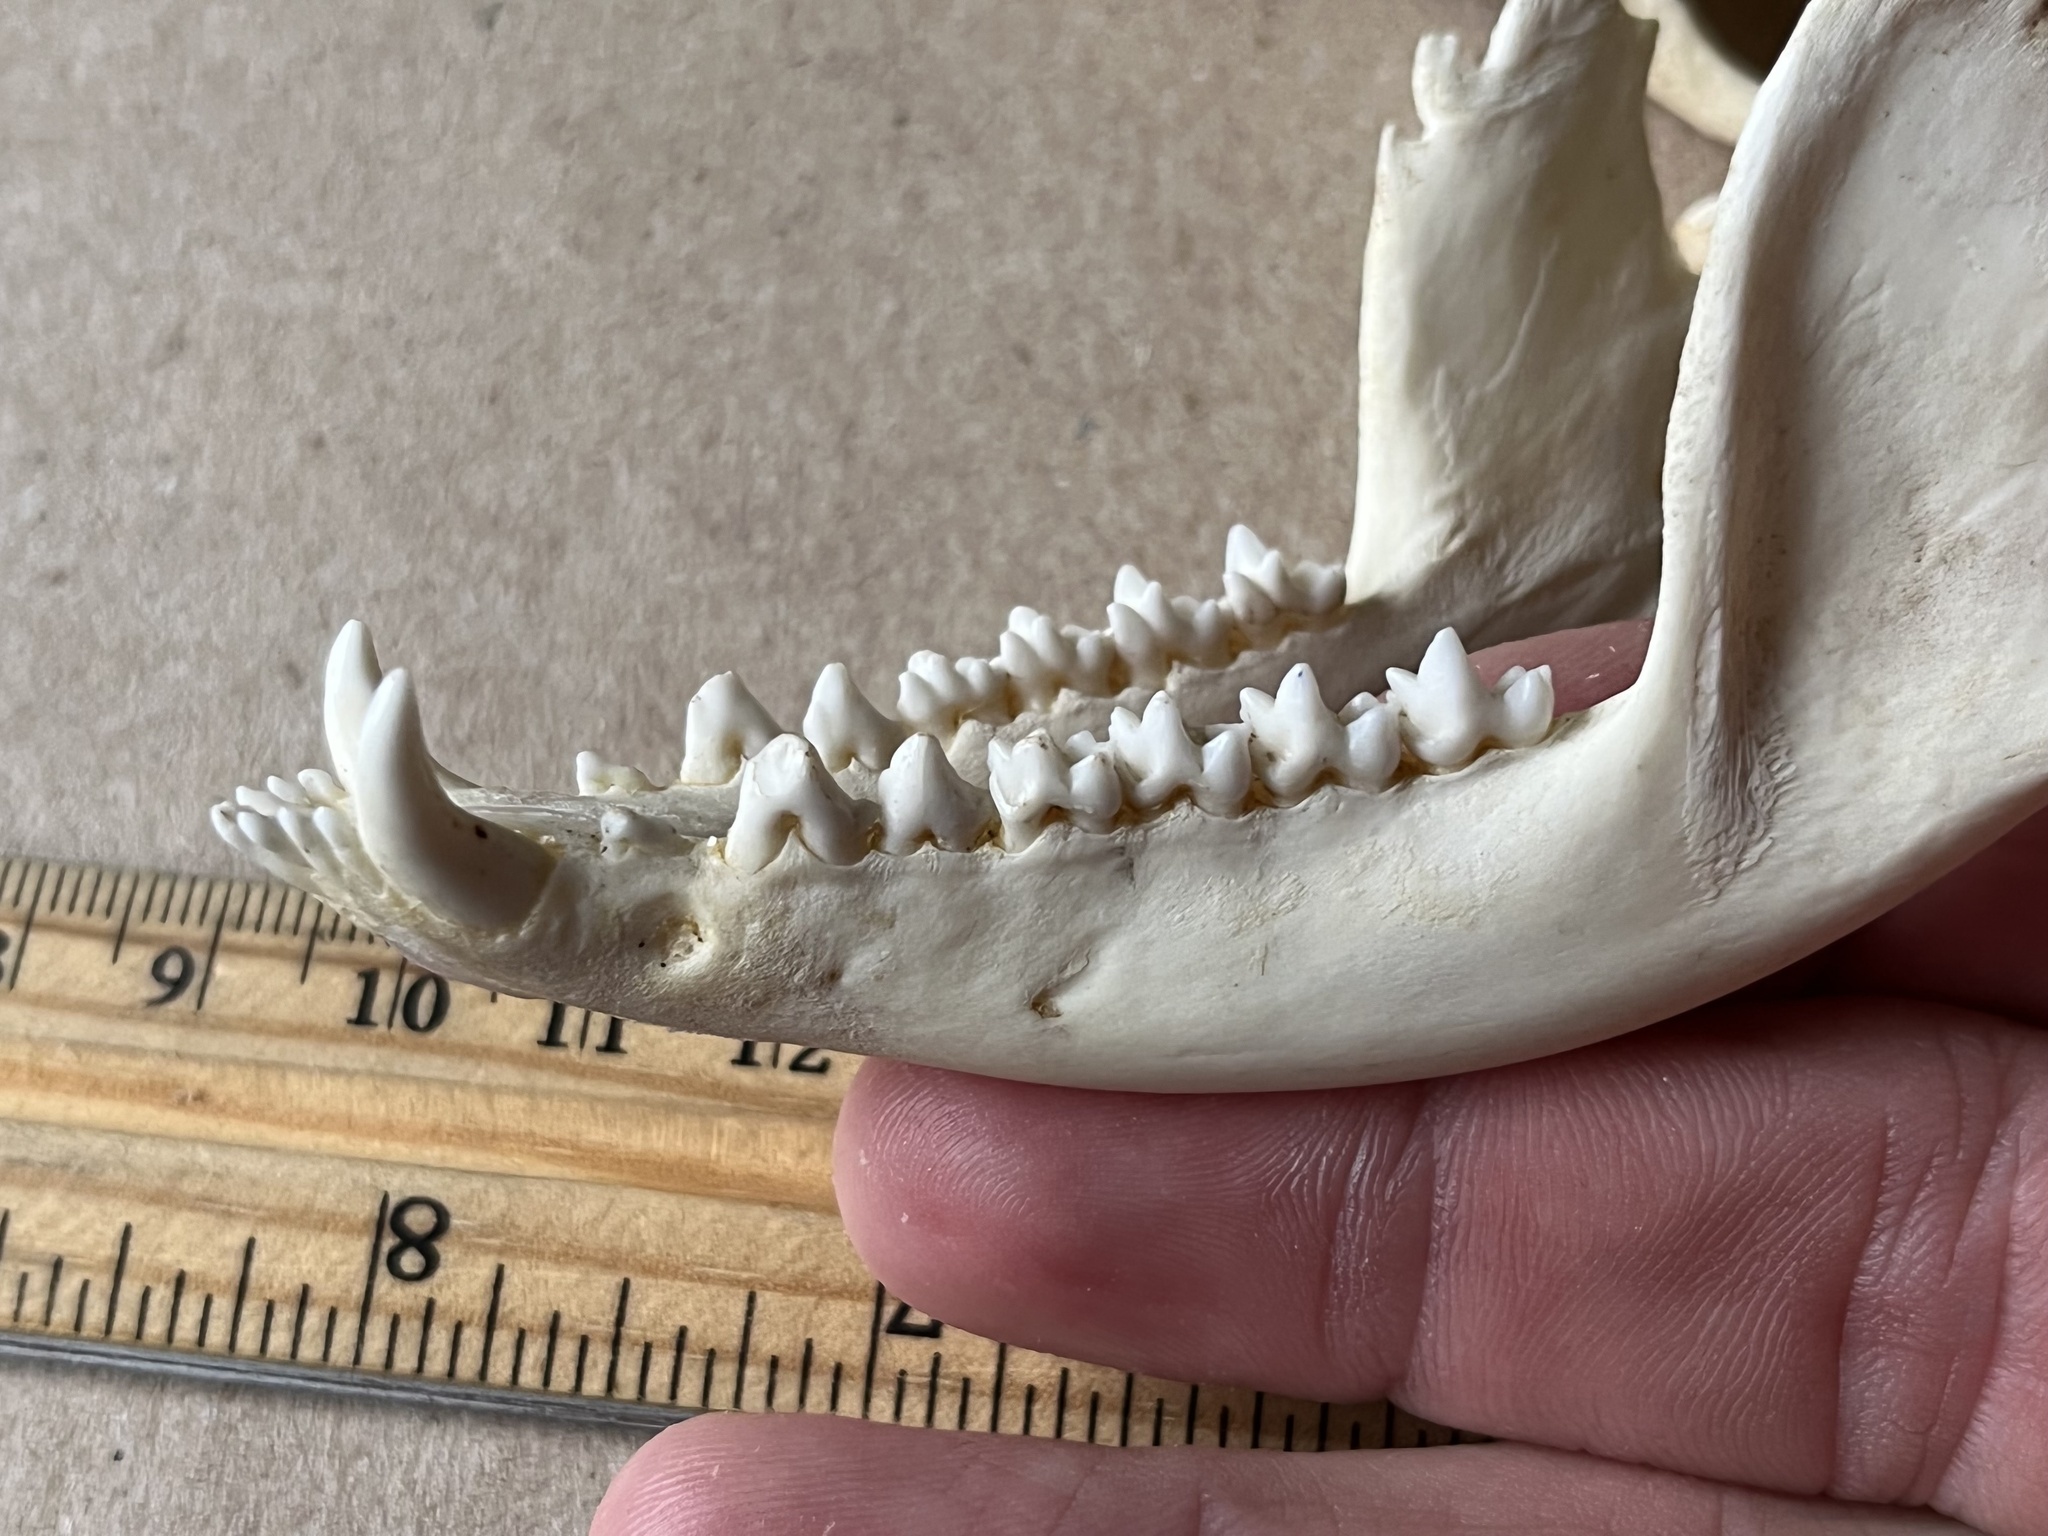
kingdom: Animalia
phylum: Chordata
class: Mammalia
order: Didelphimorphia
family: Didelphidae
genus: Didelphis
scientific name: Didelphis virginiana
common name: Virginia opossum
